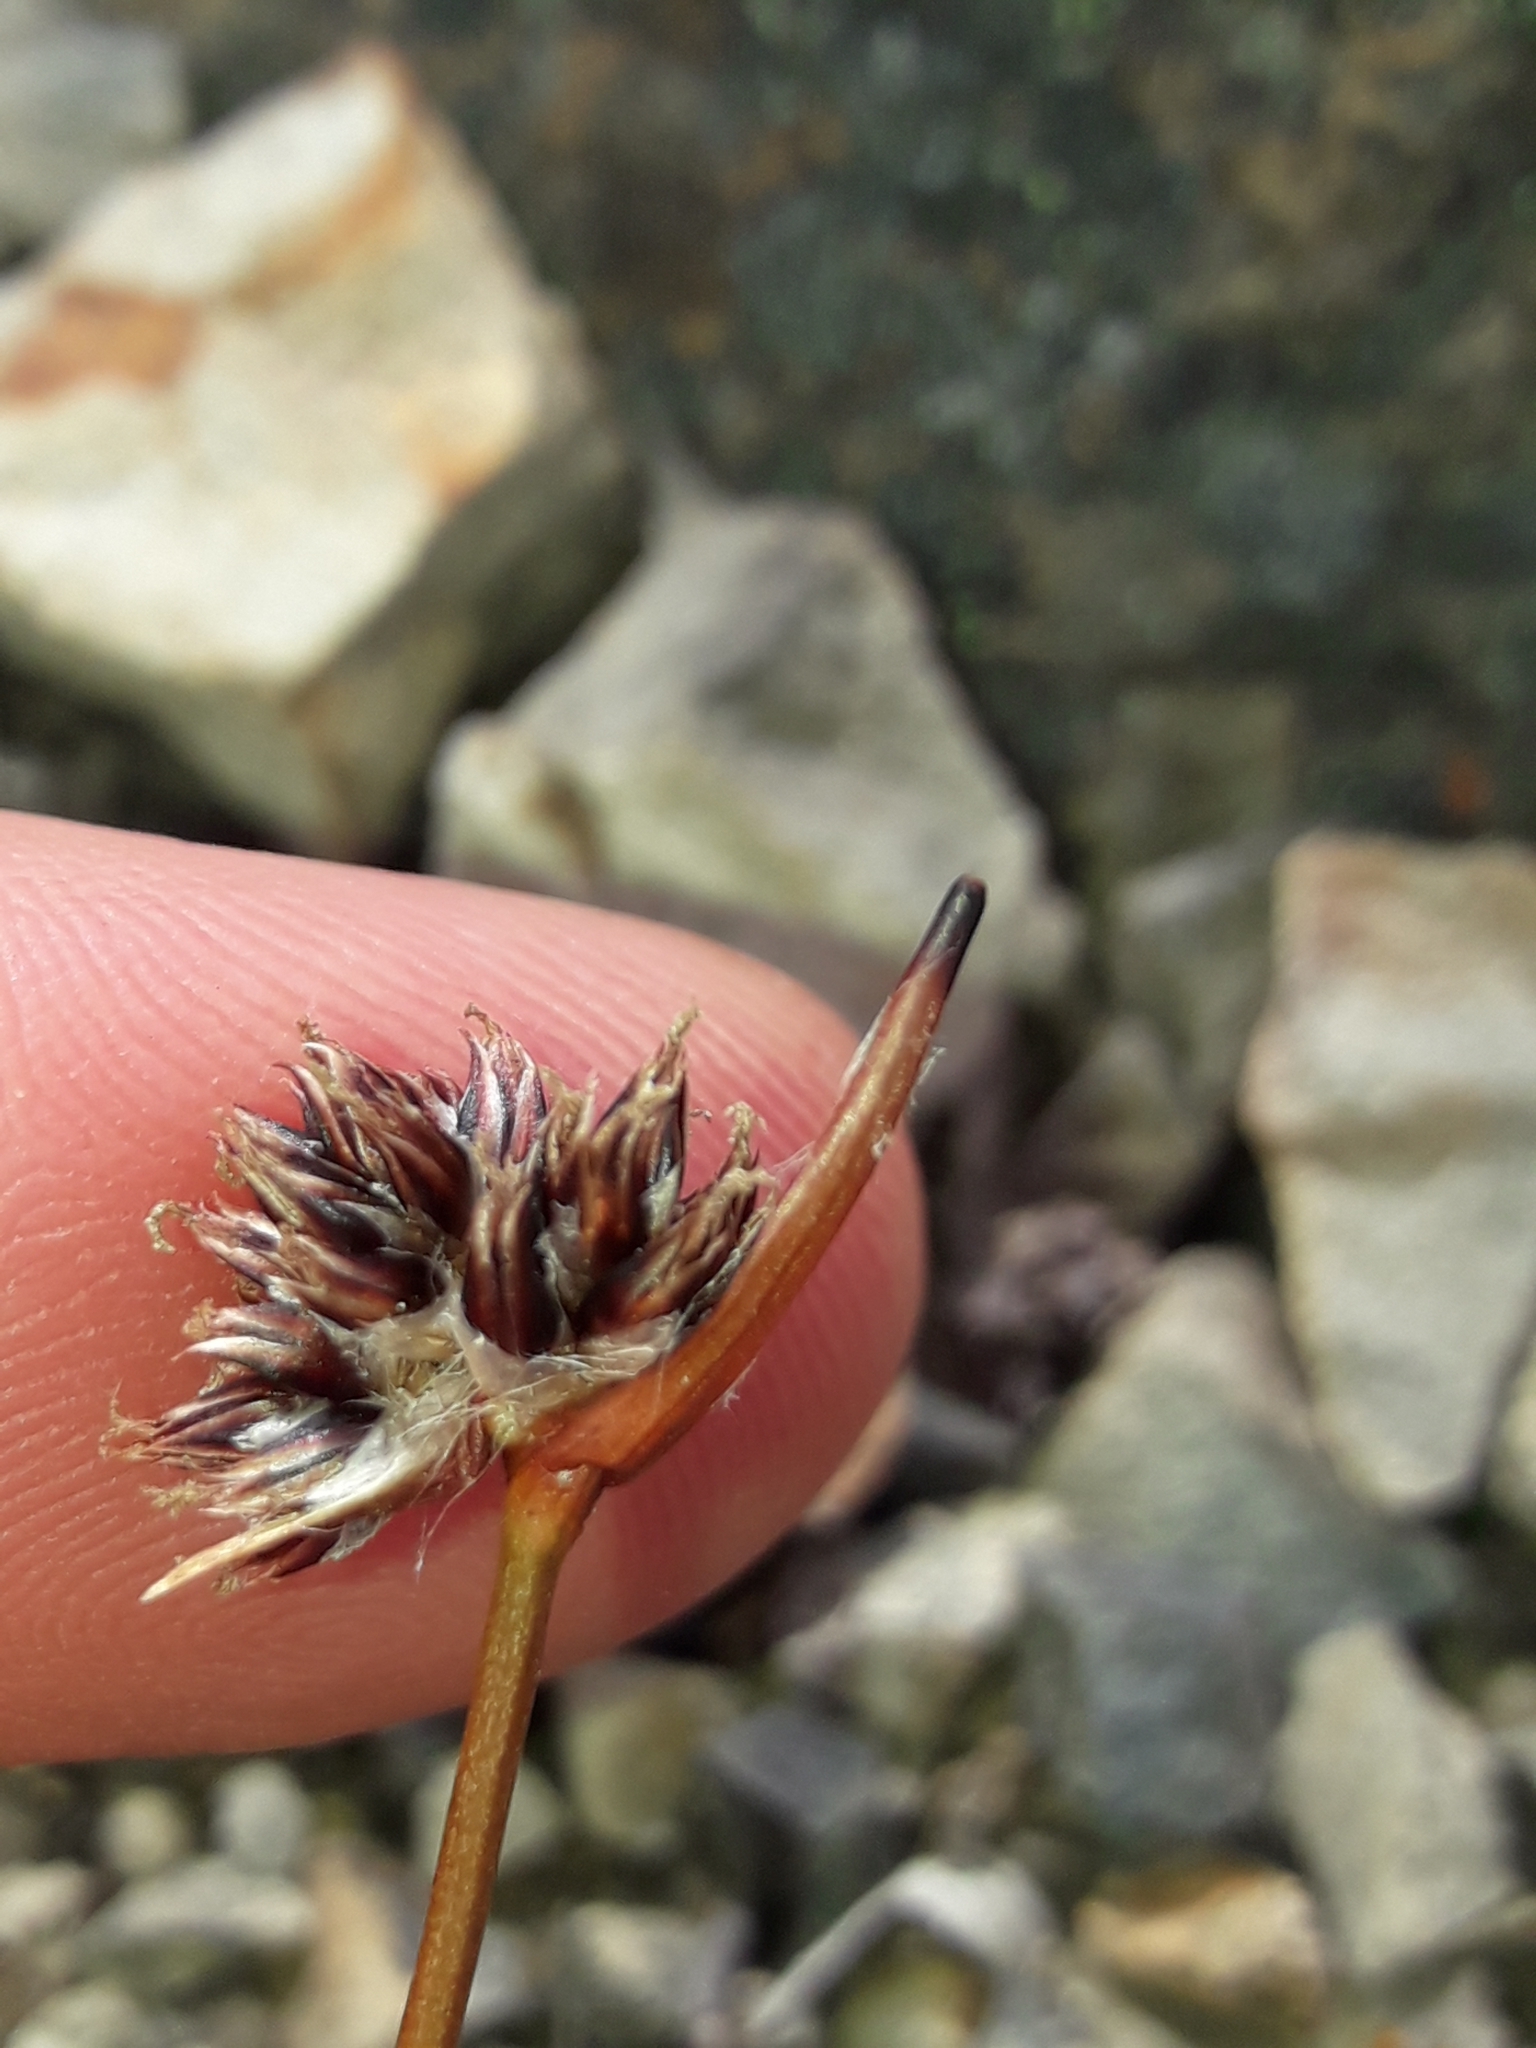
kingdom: Plantae
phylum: Tracheophyta
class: Liliopsida
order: Poales
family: Juncaceae
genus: Luzula
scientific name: Luzula rufa
